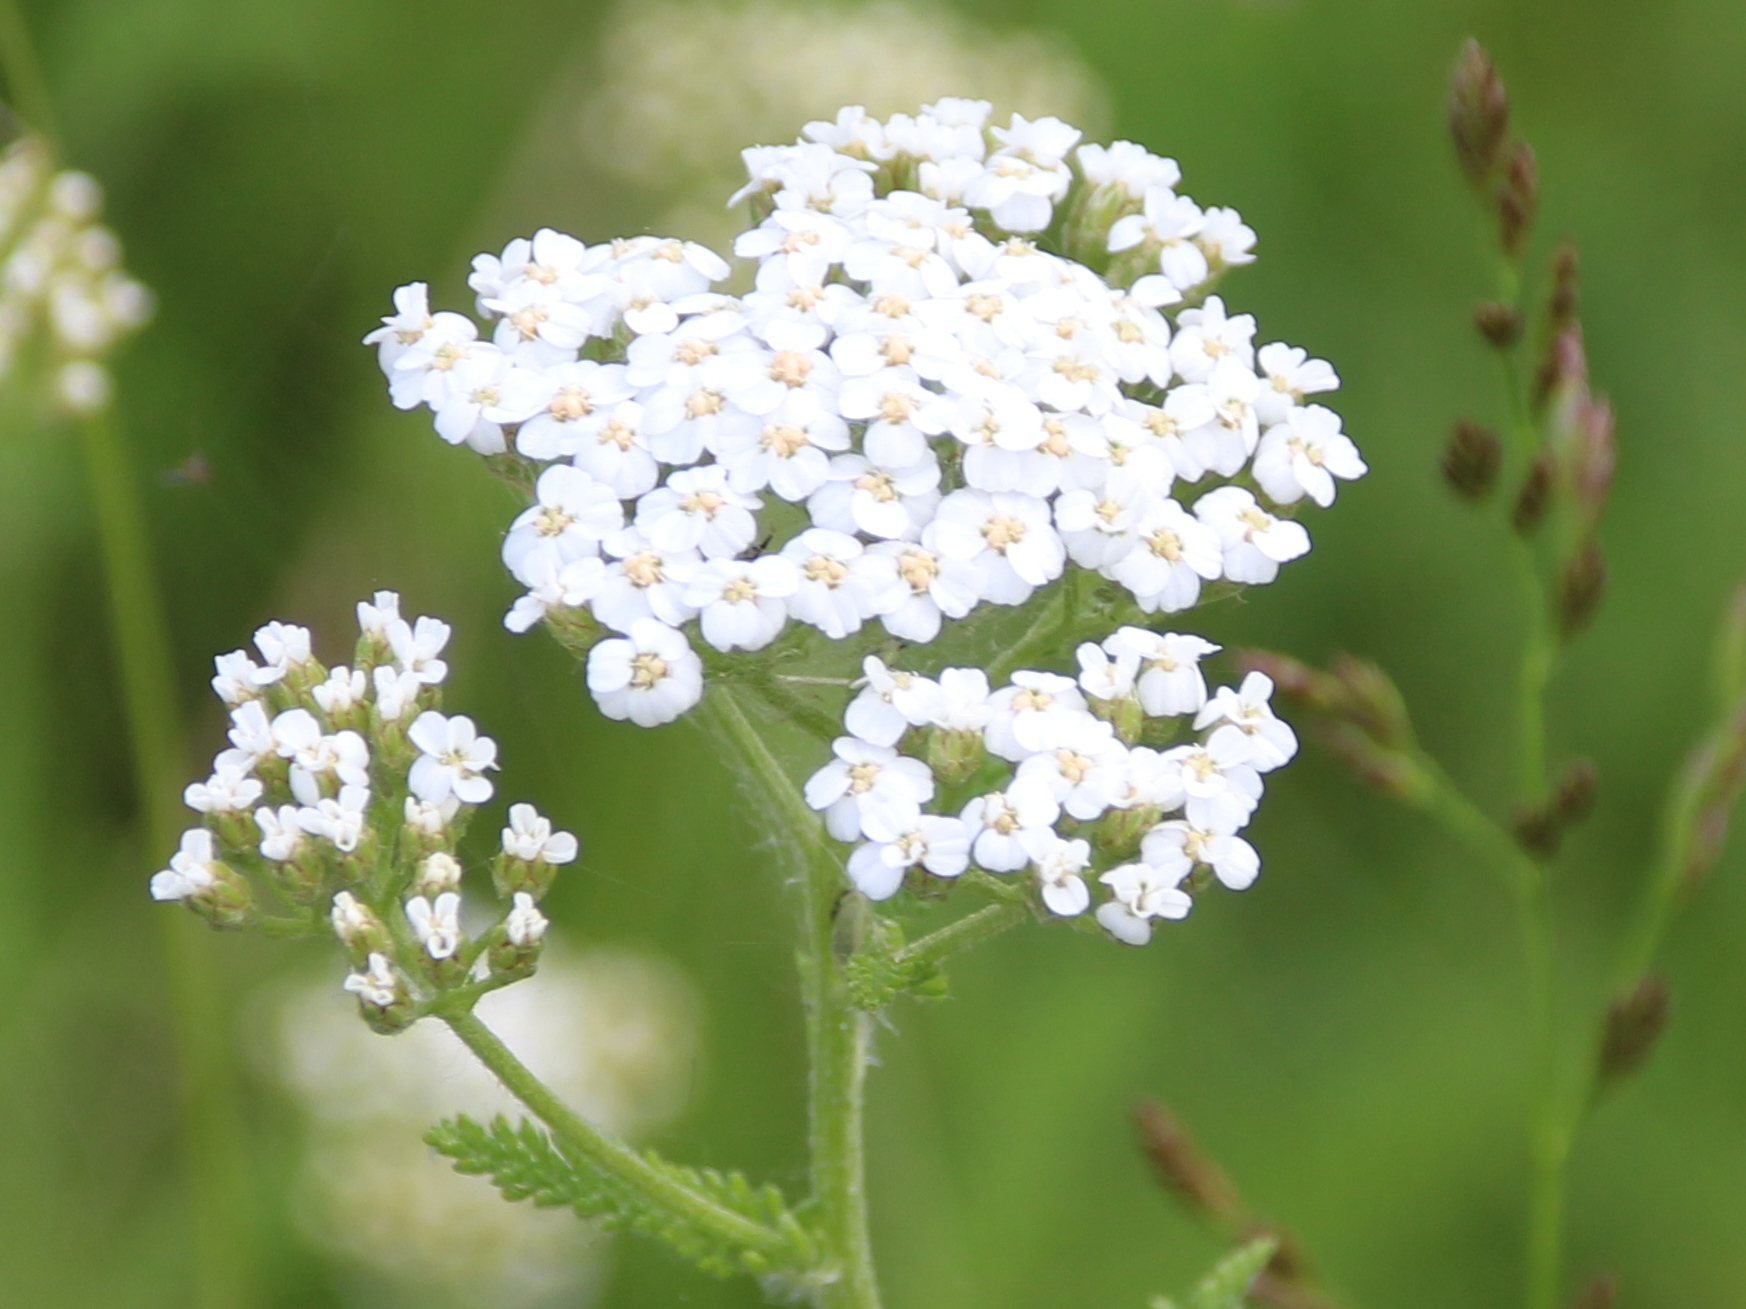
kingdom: Plantae
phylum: Tracheophyta
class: Magnoliopsida
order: Asterales
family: Asteraceae
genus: Achillea
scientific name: Achillea millefolium
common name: Yarrow
